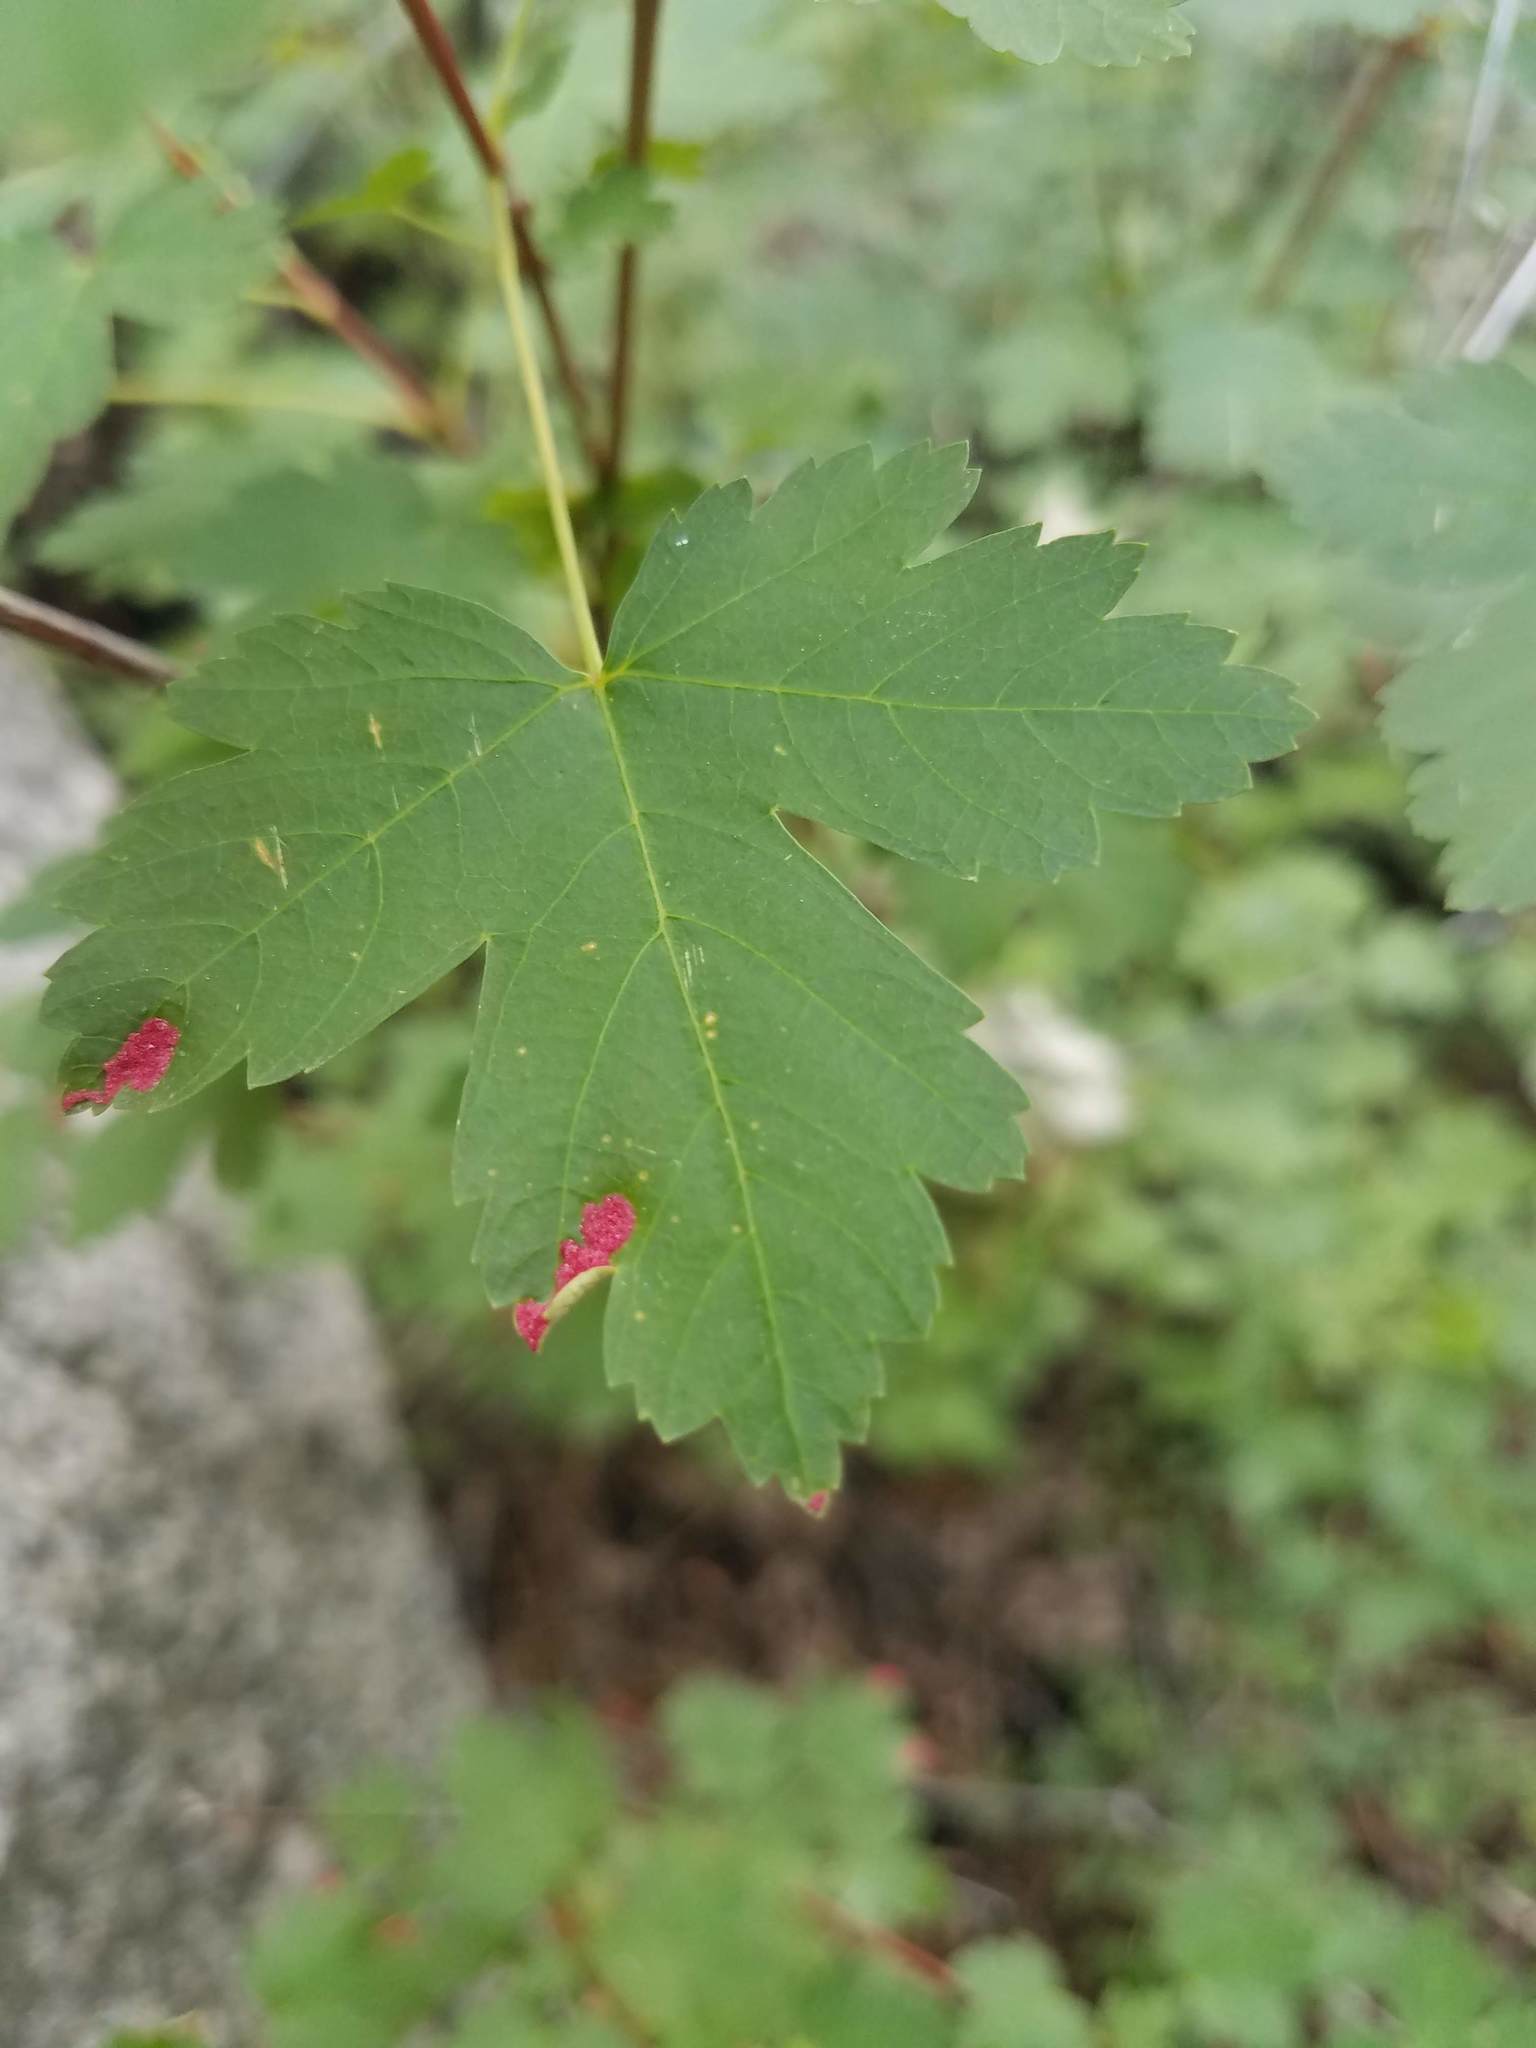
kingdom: Animalia
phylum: Arthropoda
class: Arachnida
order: Trombidiformes
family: Eriophyidae
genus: Aceria
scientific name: Aceria
